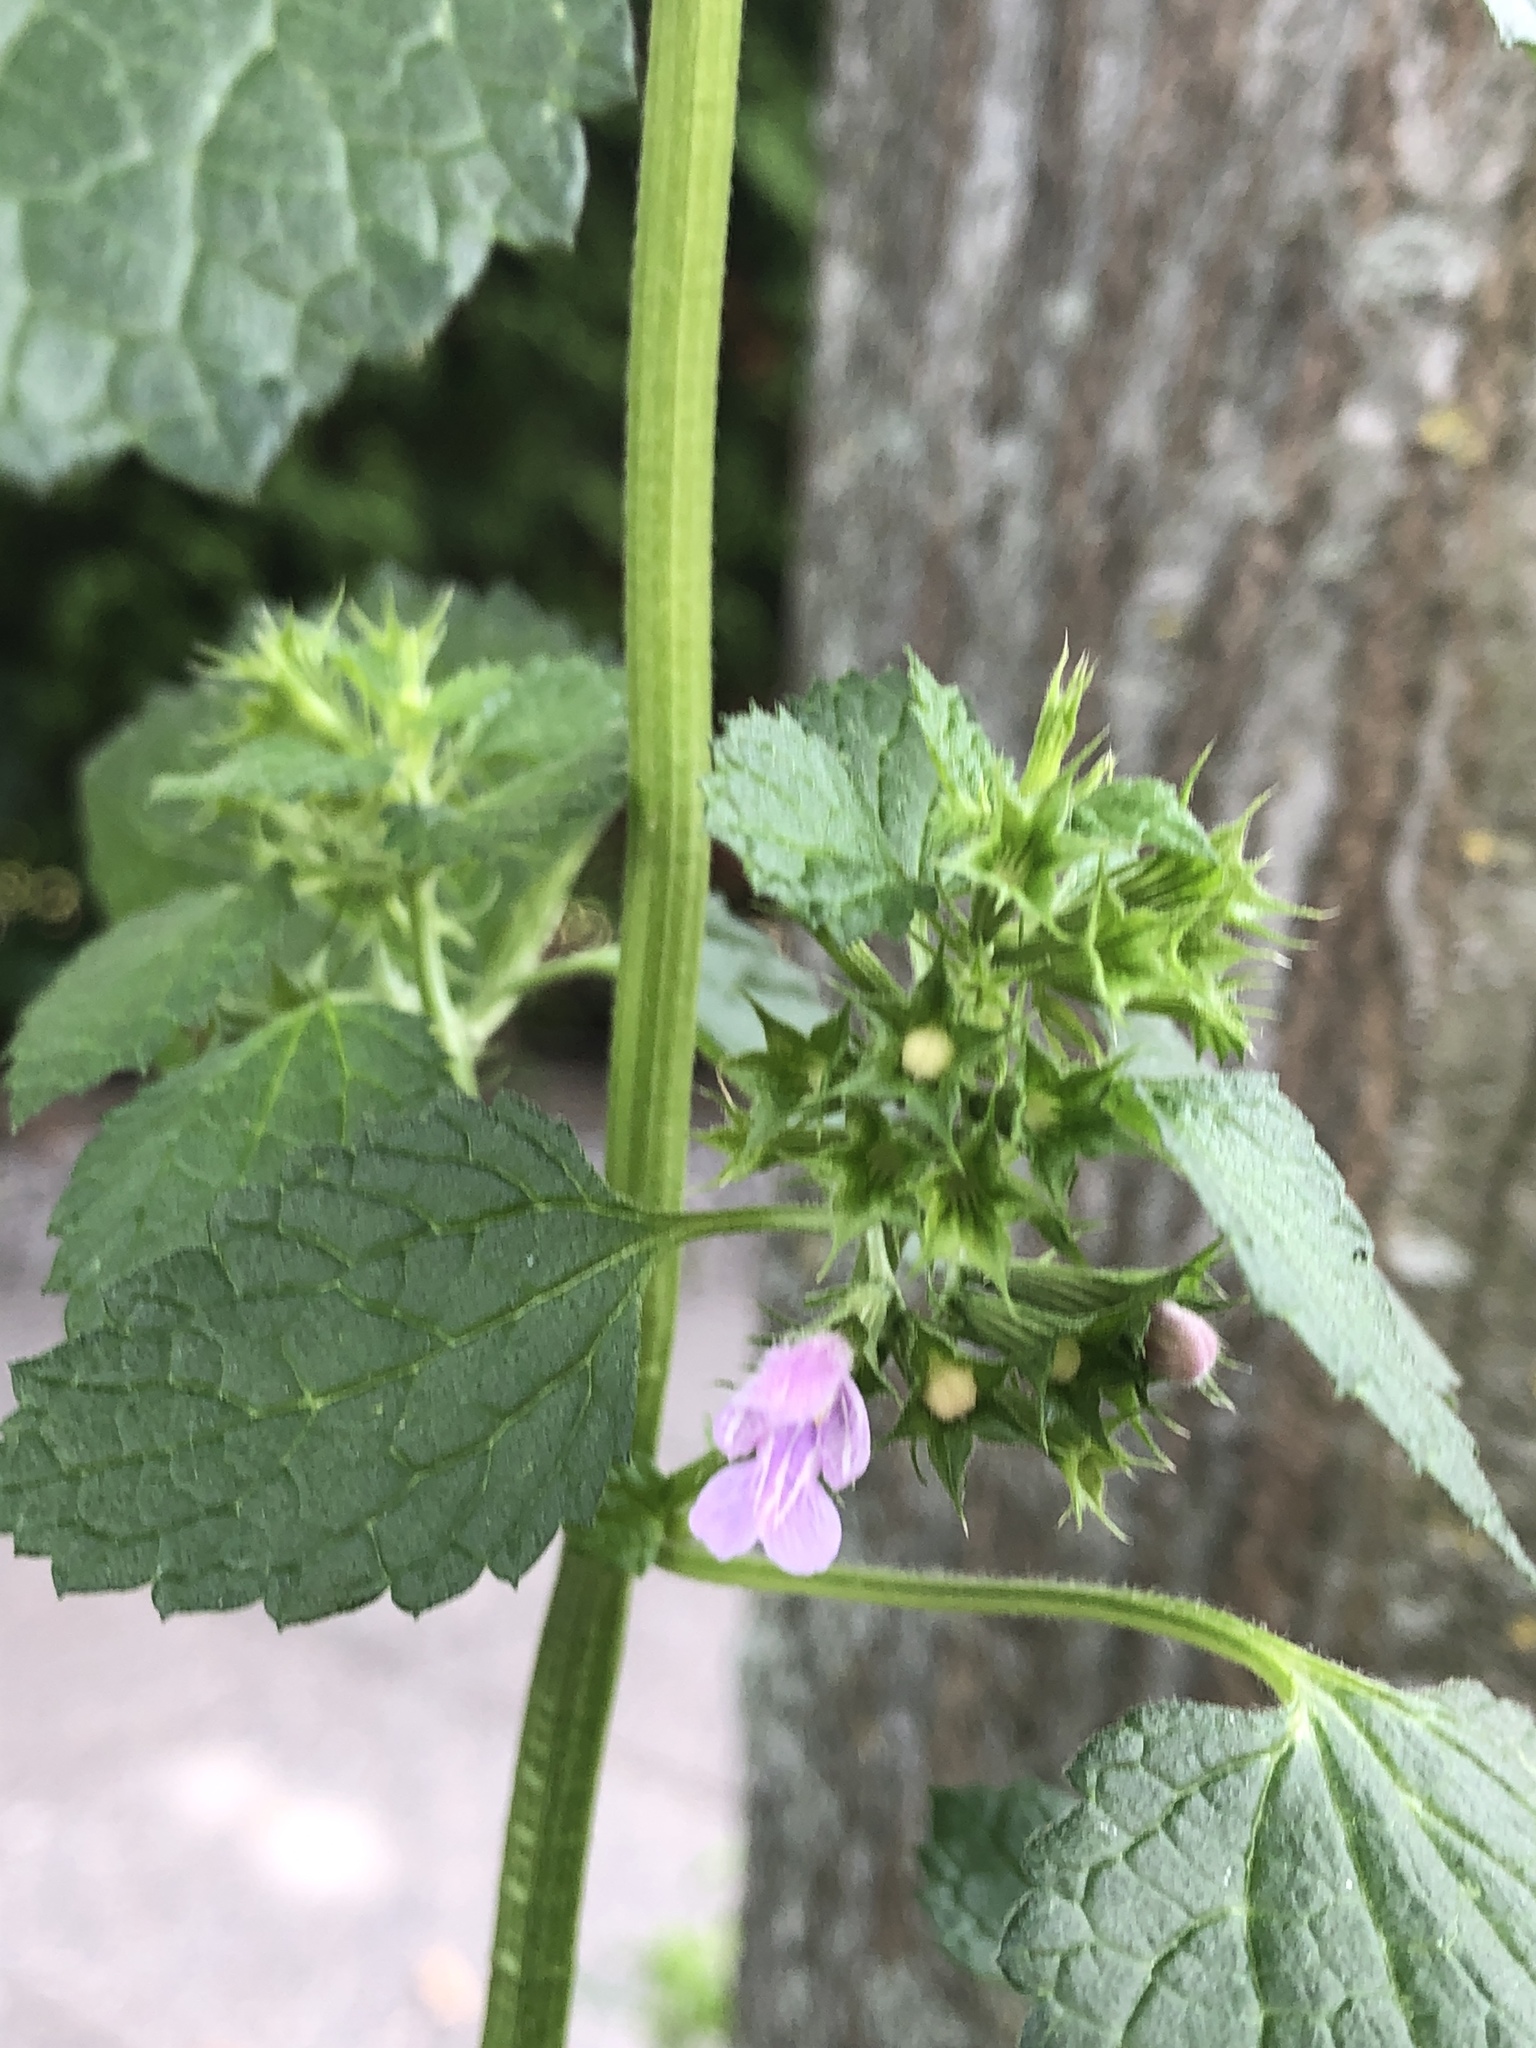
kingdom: Plantae
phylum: Tracheophyta
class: Magnoliopsida
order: Lamiales
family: Lamiaceae
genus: Ballota
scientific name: Ballota nigra
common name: Black horehound
